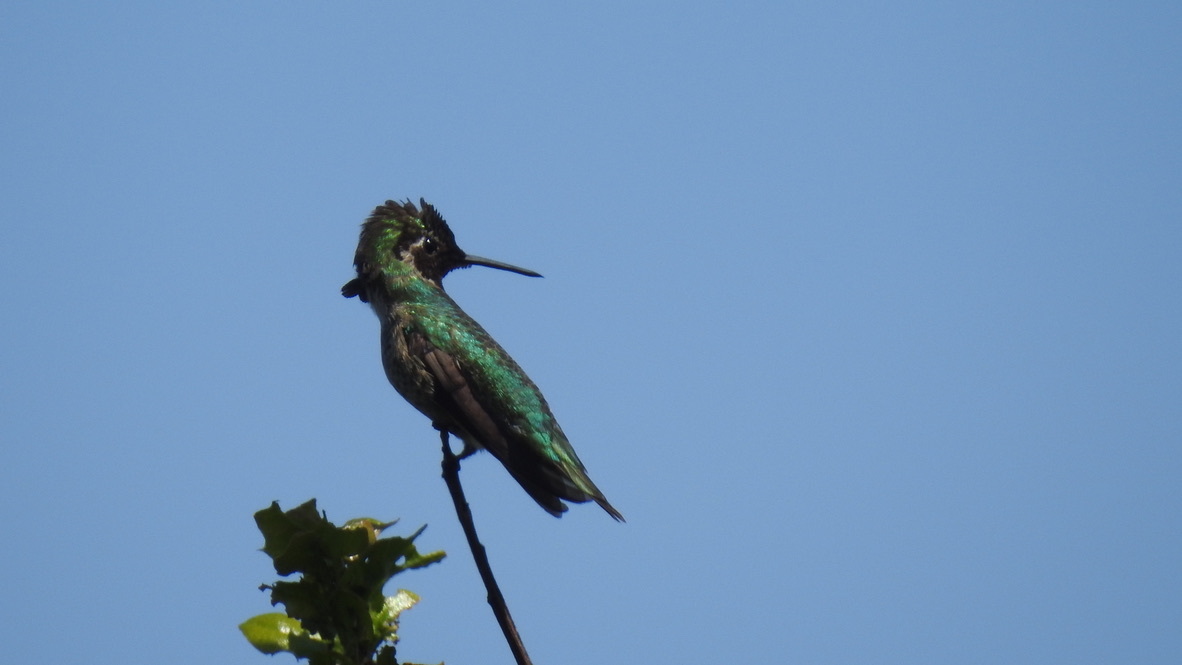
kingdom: Animalia
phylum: Chordata
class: Aves
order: Apodiformes
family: Trochilidae
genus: Calypte
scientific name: Calypte anna
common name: Anna's hummingbird
